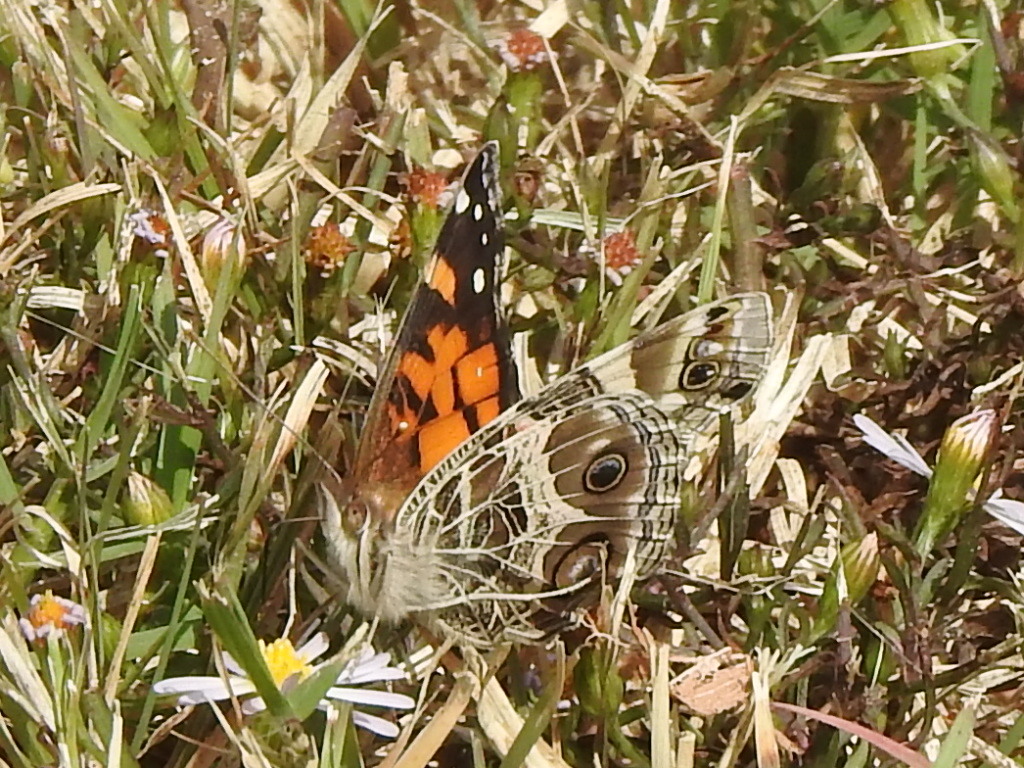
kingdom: Animalia
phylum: Arthropoda
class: Insecta
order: Lepidoptera
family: Nymphalidae
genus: Vanessa
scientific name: Vanessa virginiensis
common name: American lady
